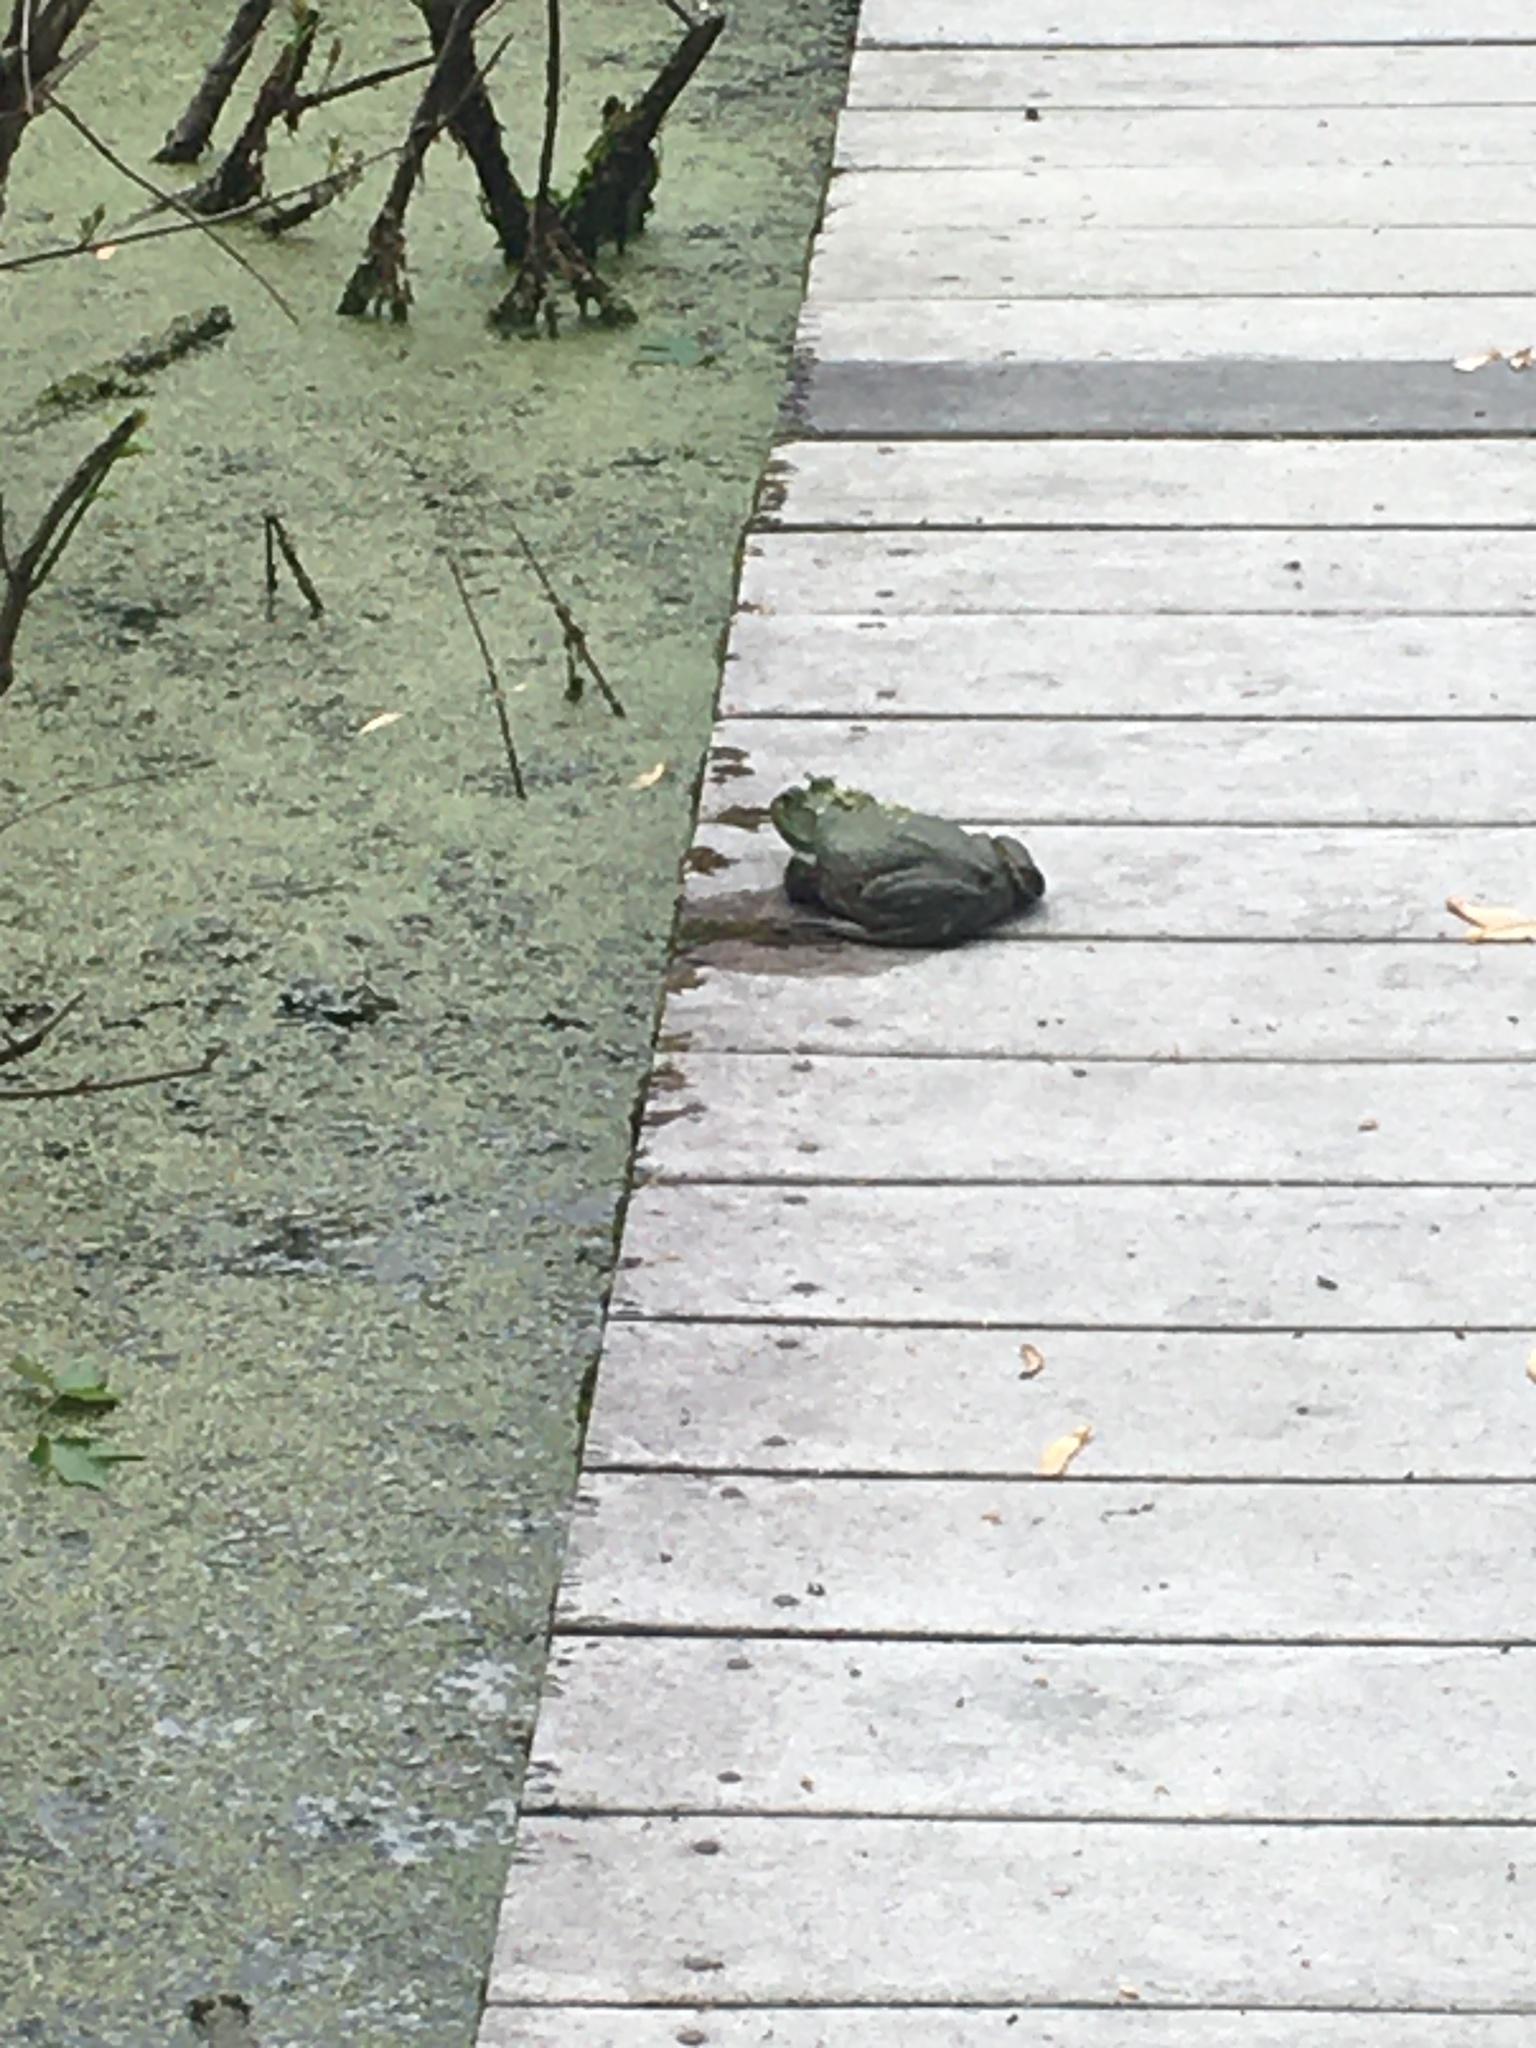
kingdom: Animalia
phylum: Chordata
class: Amphibia
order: Anura
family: Ranidae
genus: Lithobates
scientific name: Lithobates catesbeianus
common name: American bullfrog
